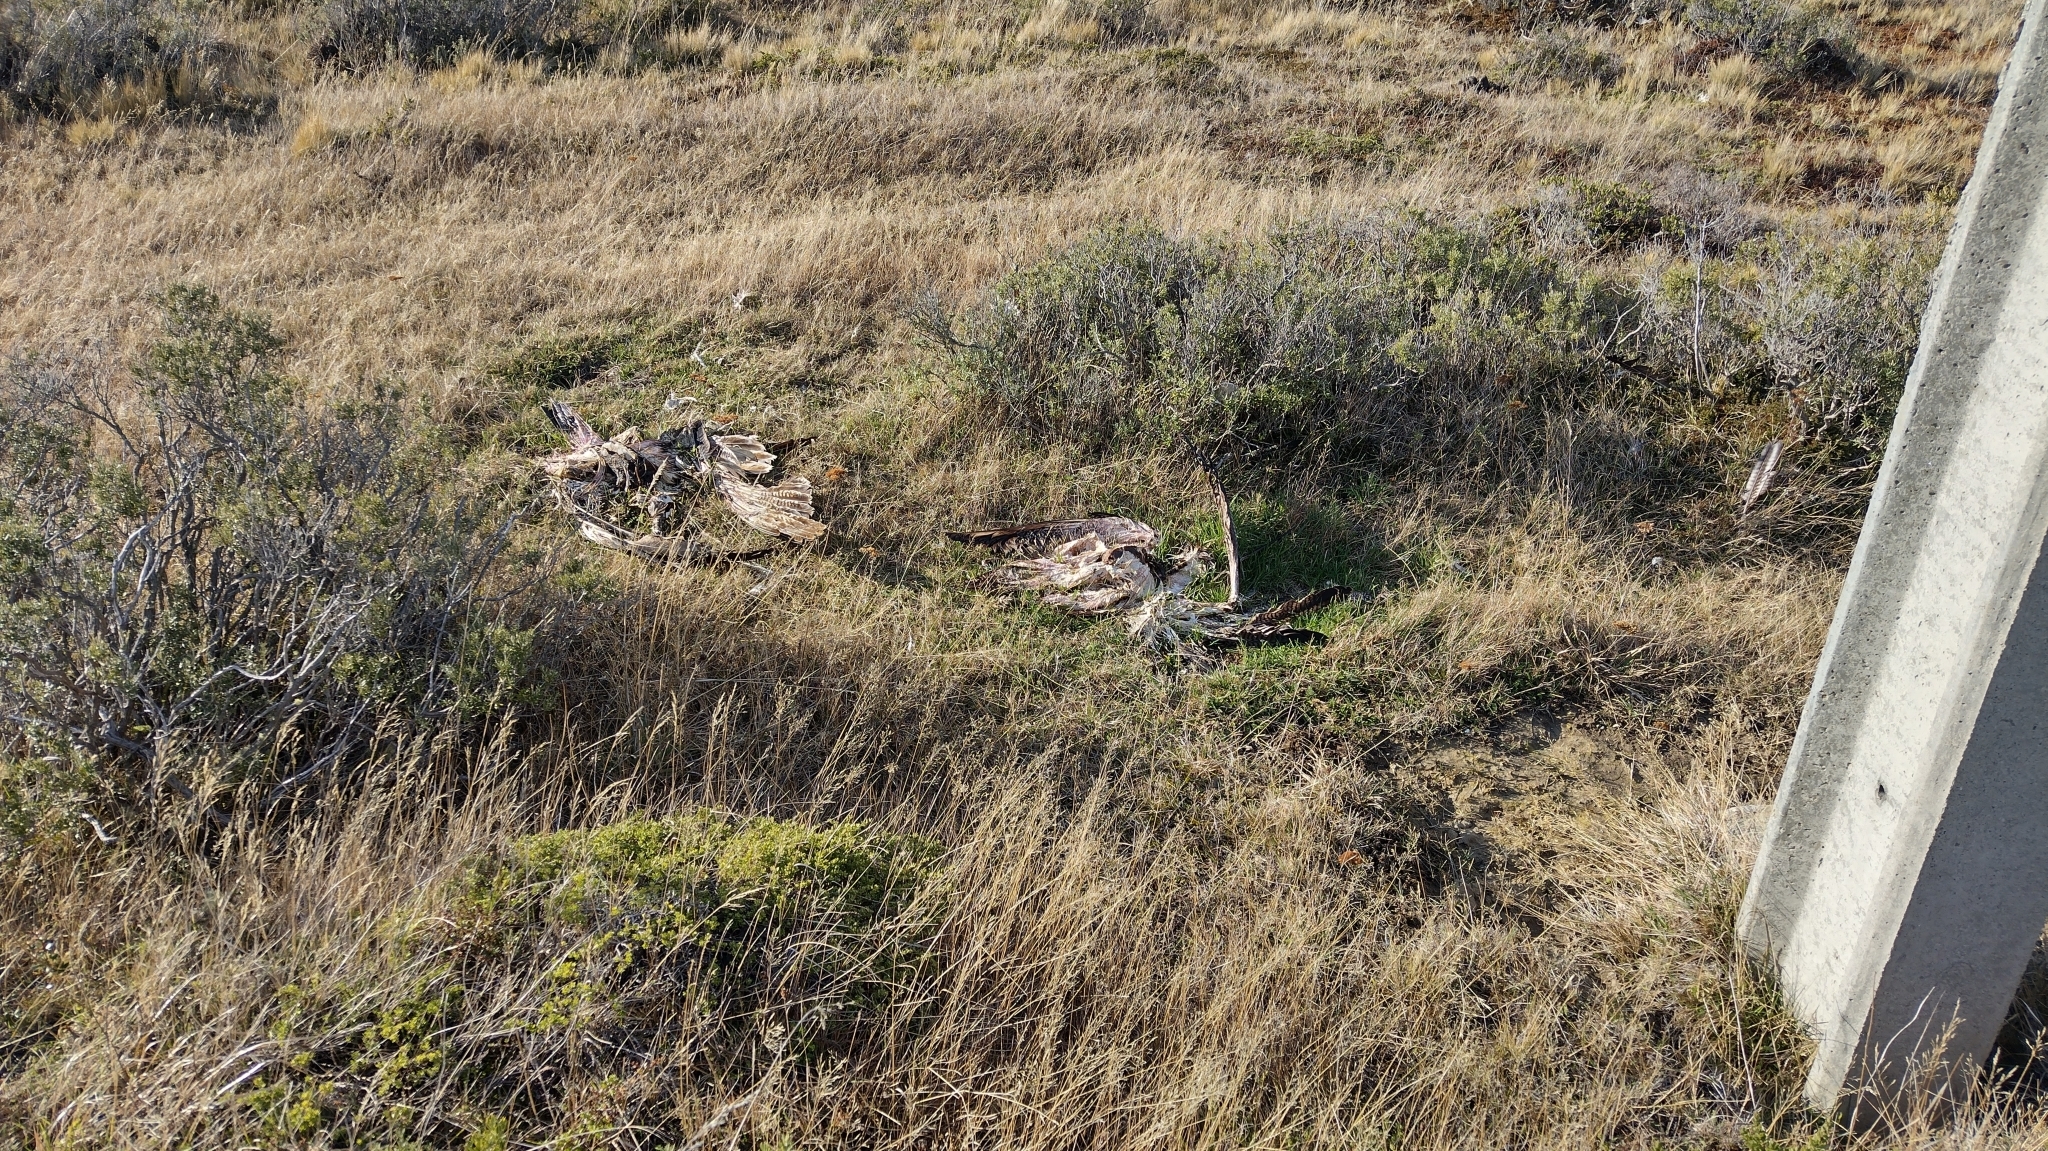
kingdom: Animalia
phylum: Chordata
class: Aves
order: Falconiformes
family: Falconidae
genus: Caracara
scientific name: Caracara plancus
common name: Southern caracara
